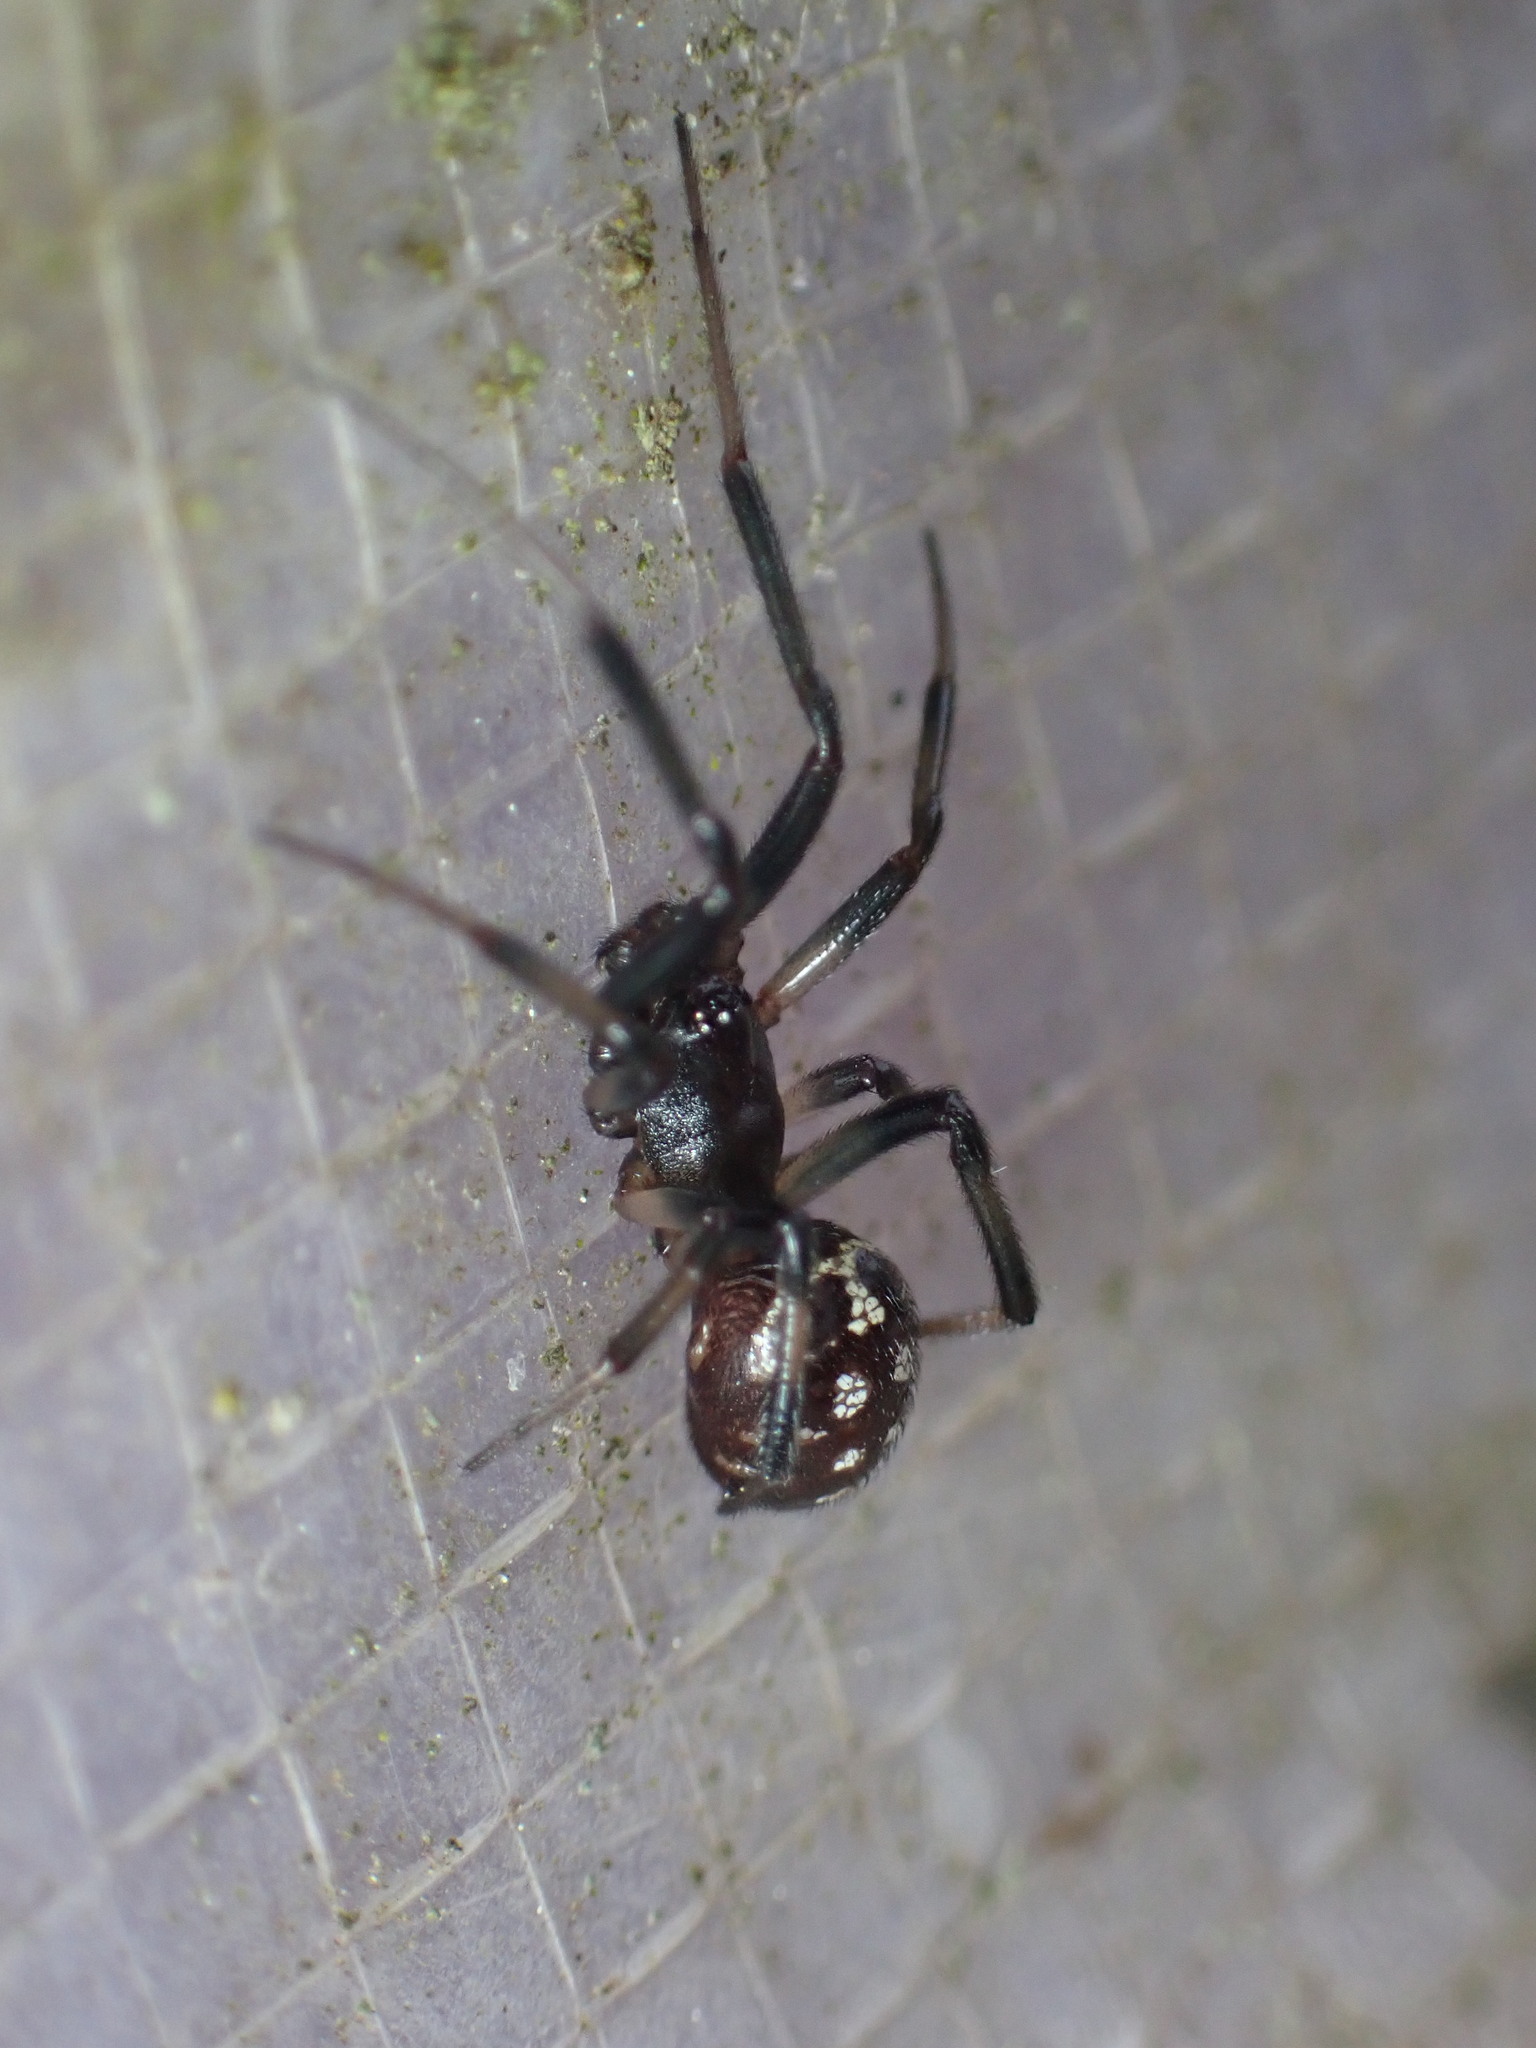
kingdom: Animalia
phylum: Arthropoda
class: Arachnida
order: Araneae
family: Theridiidae
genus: Steatoda
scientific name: Steatoda capensis
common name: Cobweb weaver
